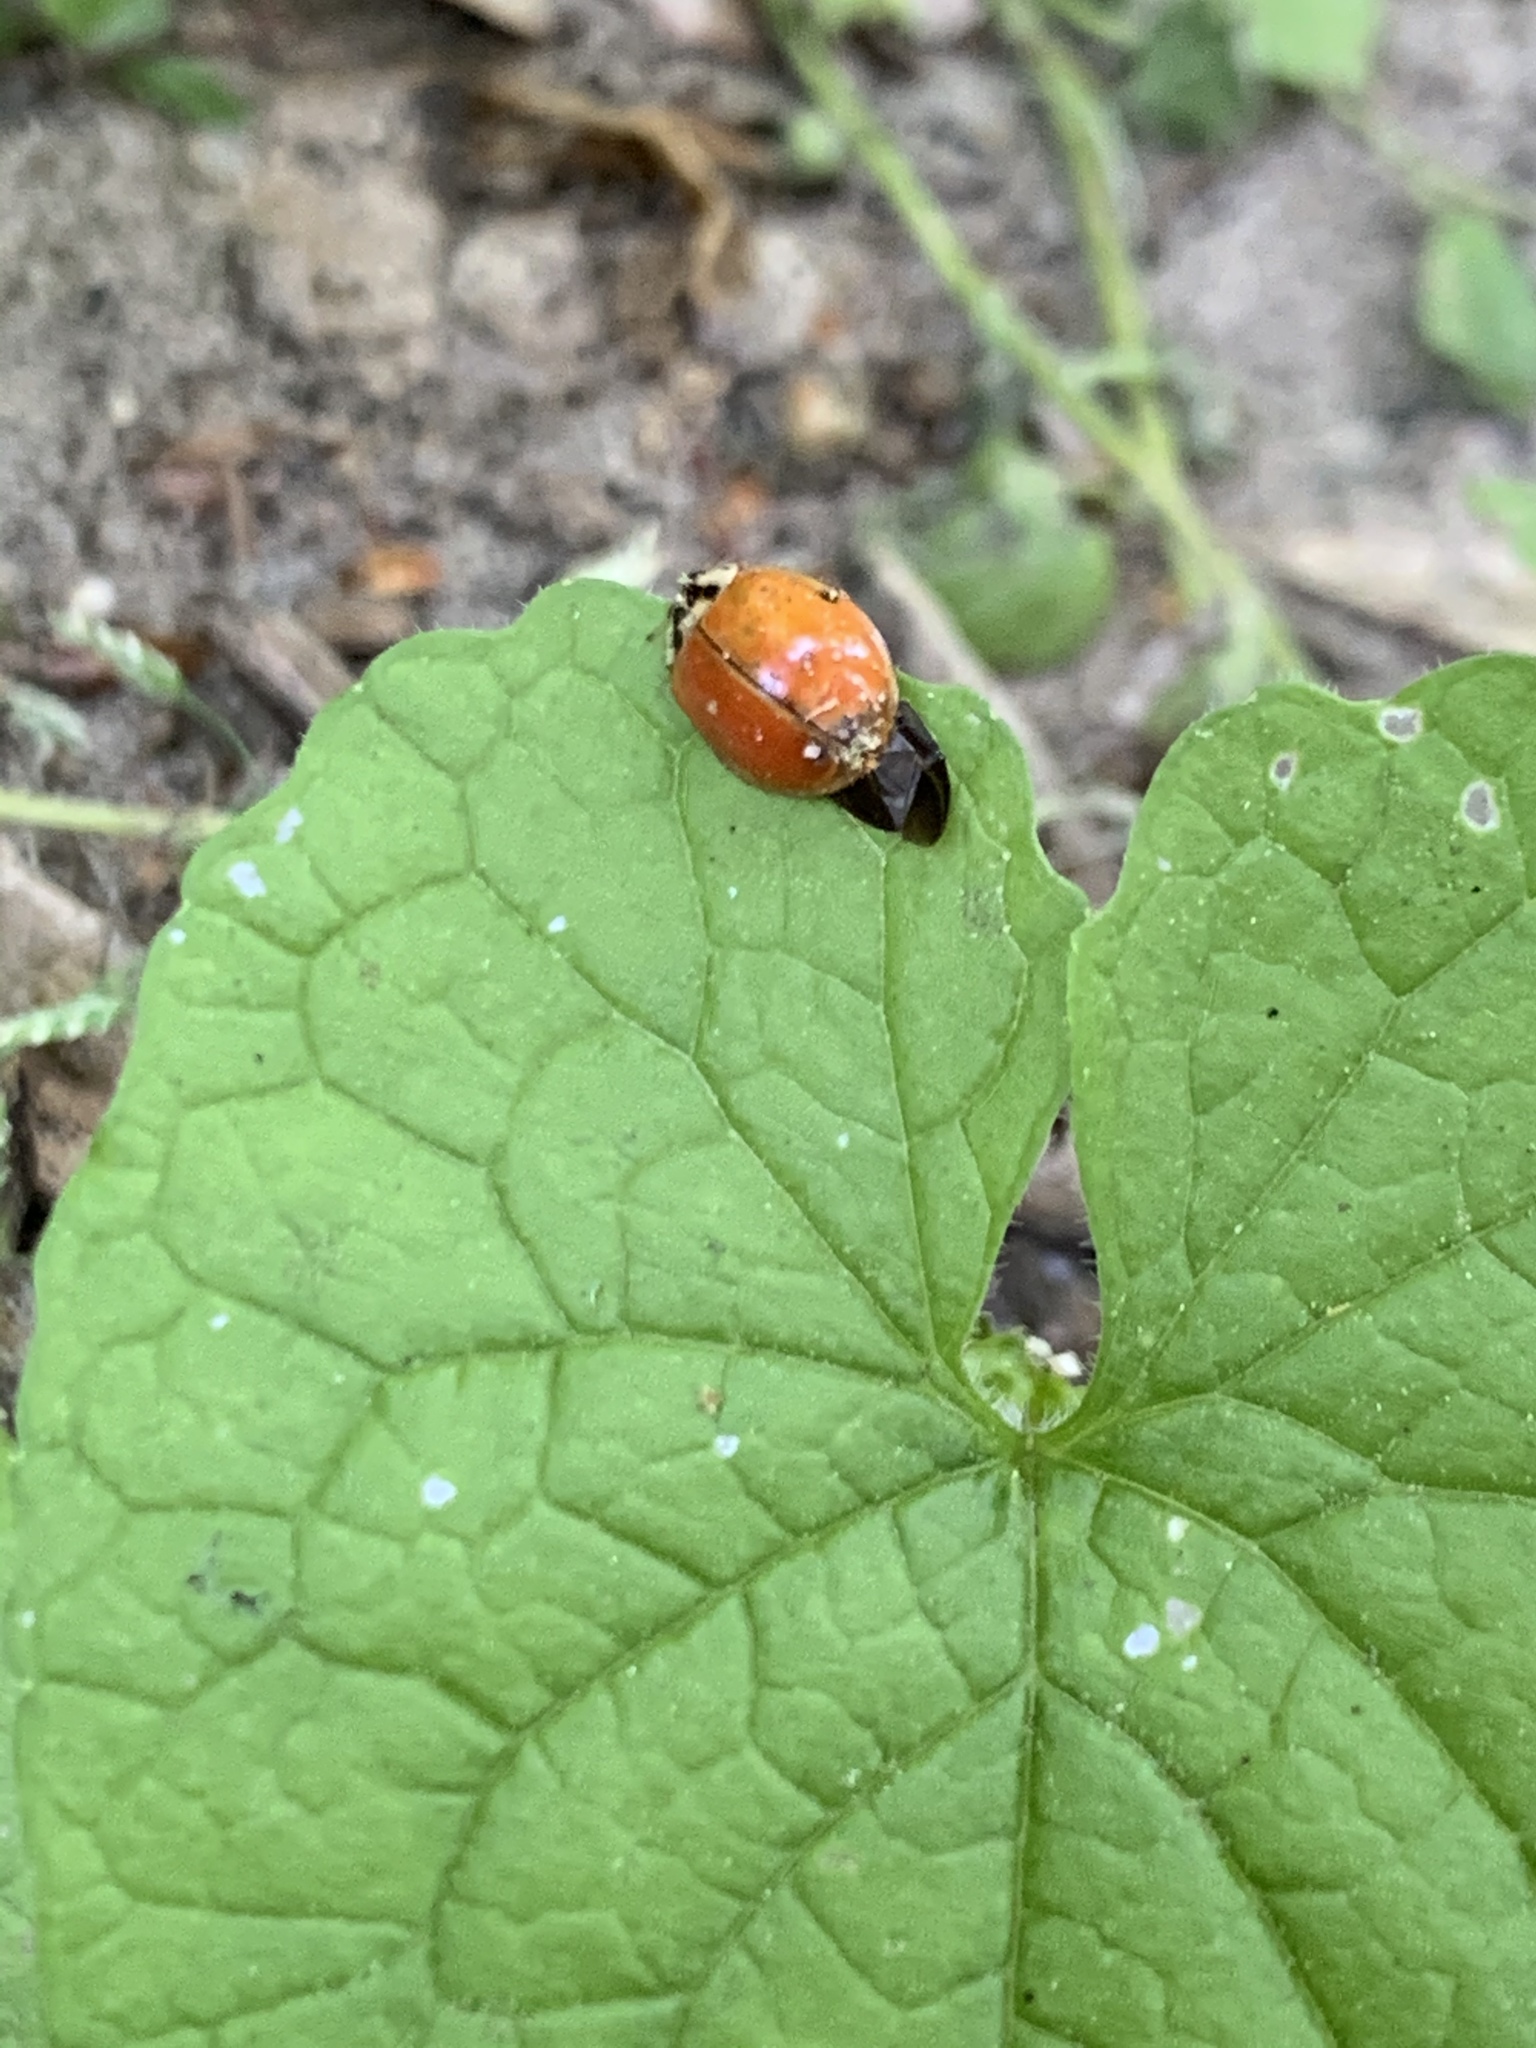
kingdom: Animalia
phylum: Arthropoda
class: Insecta
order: Coleoptera
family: Coccinellidae
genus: Harmonia
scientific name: Harmonia axyridis
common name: Harlequin ladybird
